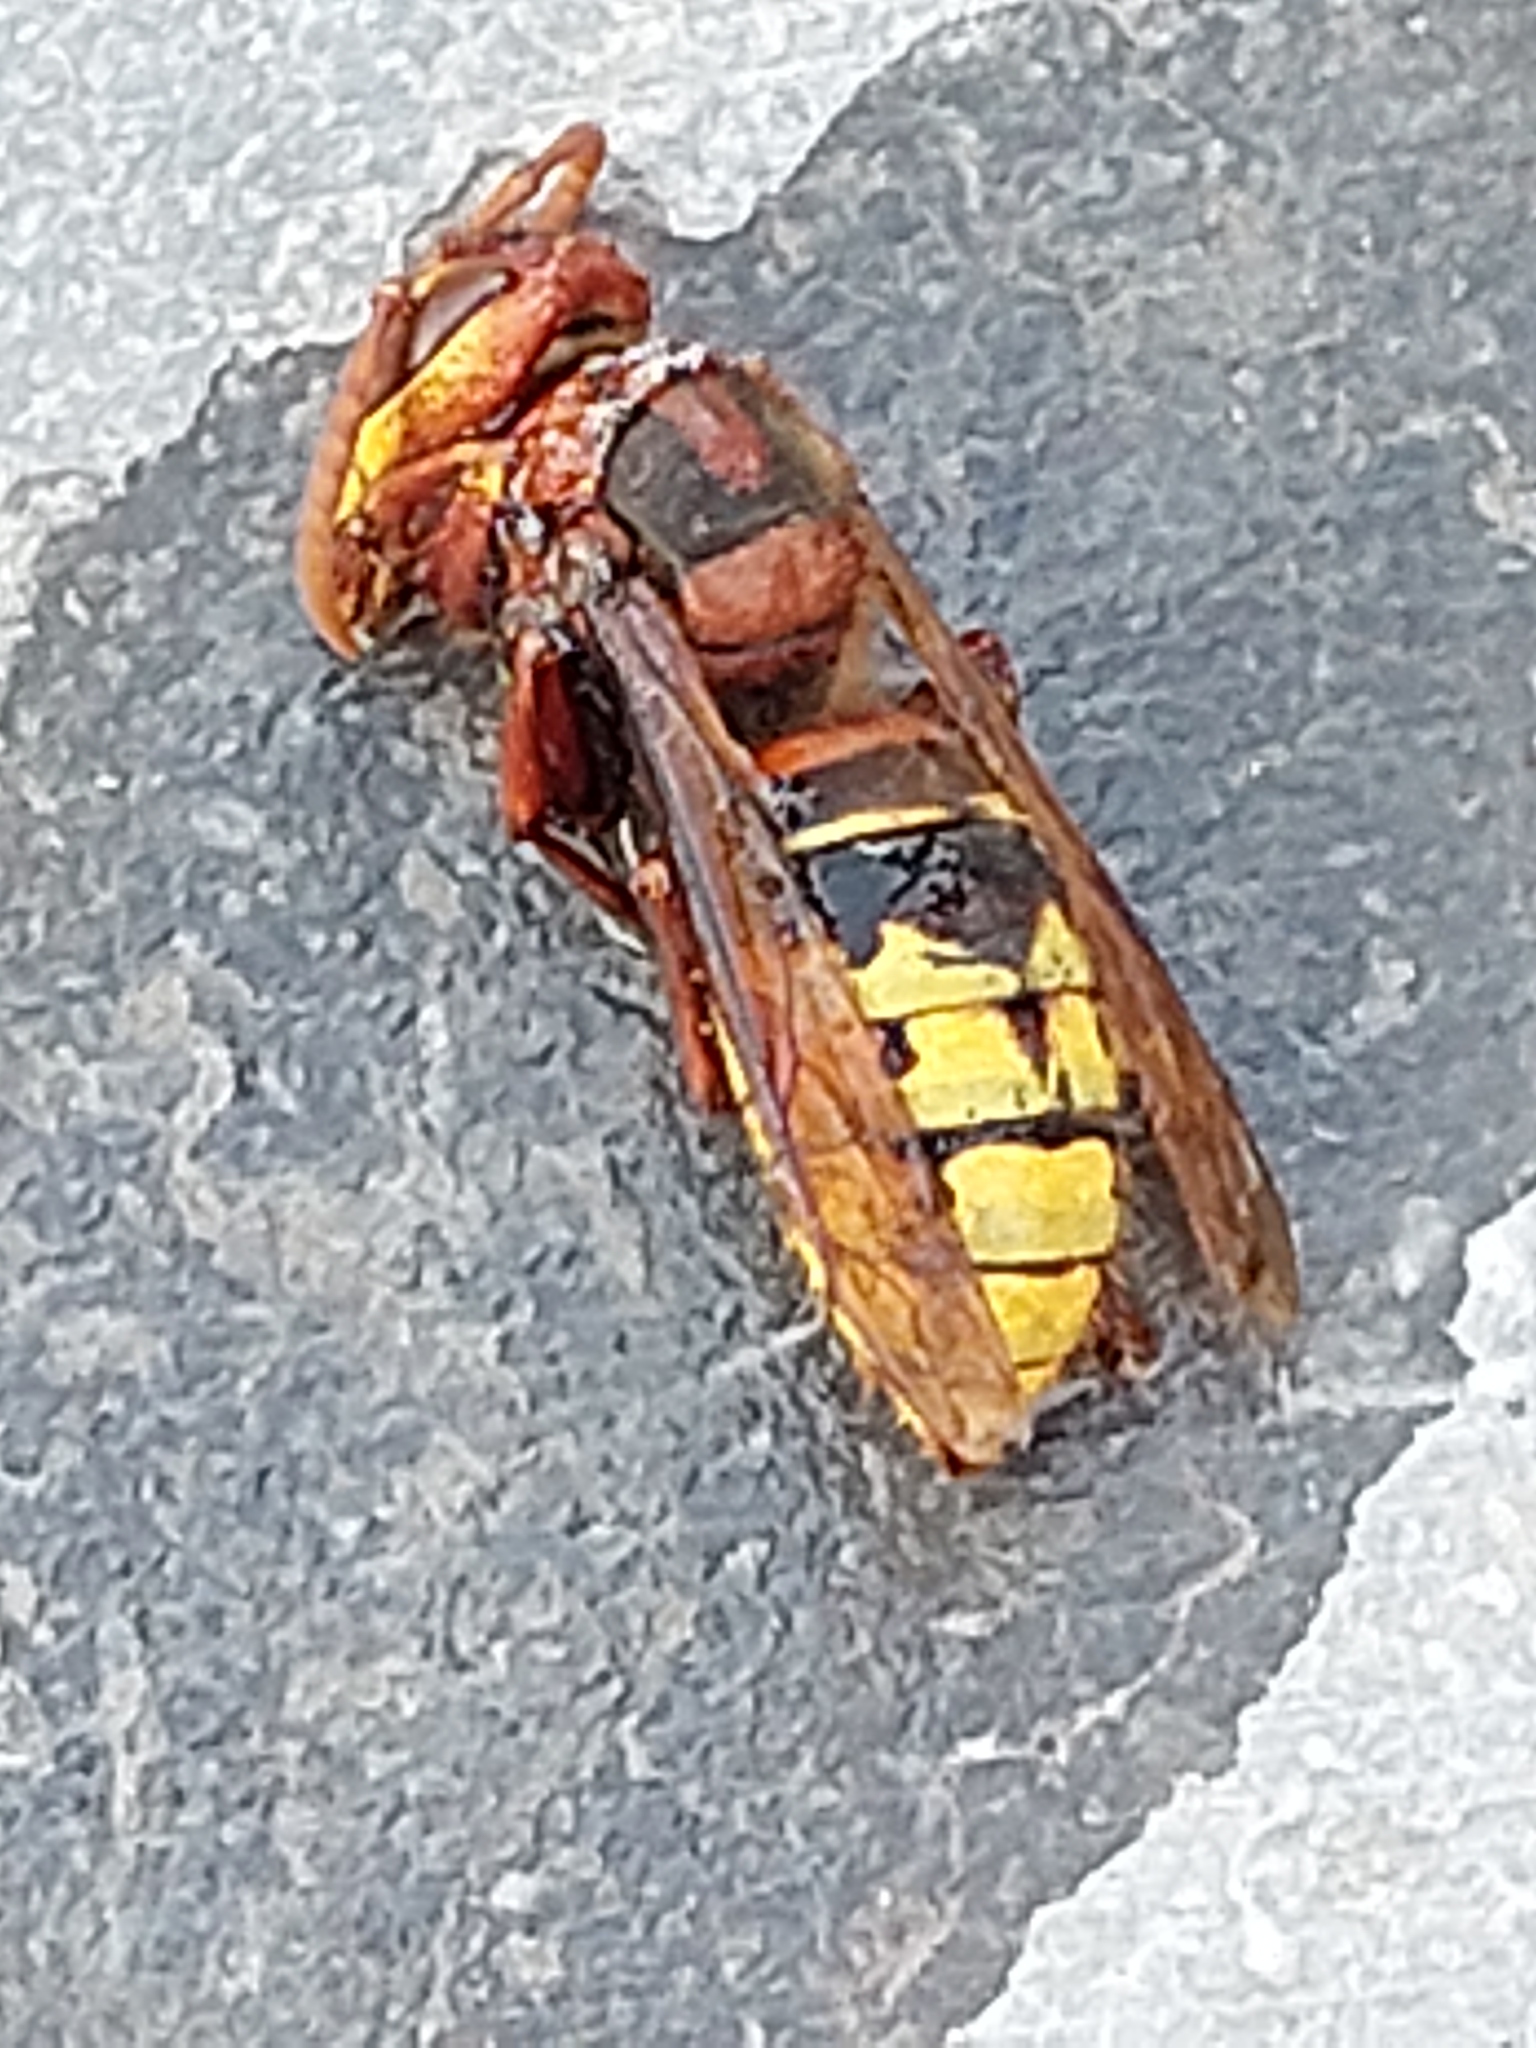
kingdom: Animalia
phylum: Arthropoda
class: Insecta
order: Hymenoptera
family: Vespidae
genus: Vespa
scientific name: Vespa crabro
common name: Hornet
